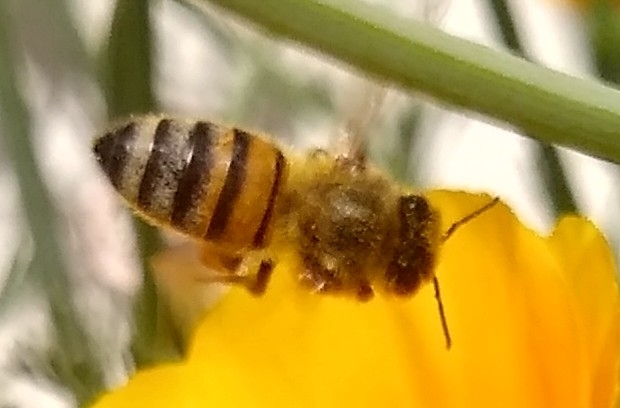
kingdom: Animalia
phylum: Arthropoda
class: Insecta
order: Hymenoptera
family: Apidae
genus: Apis
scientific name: Apis mellifera
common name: Honey bee
